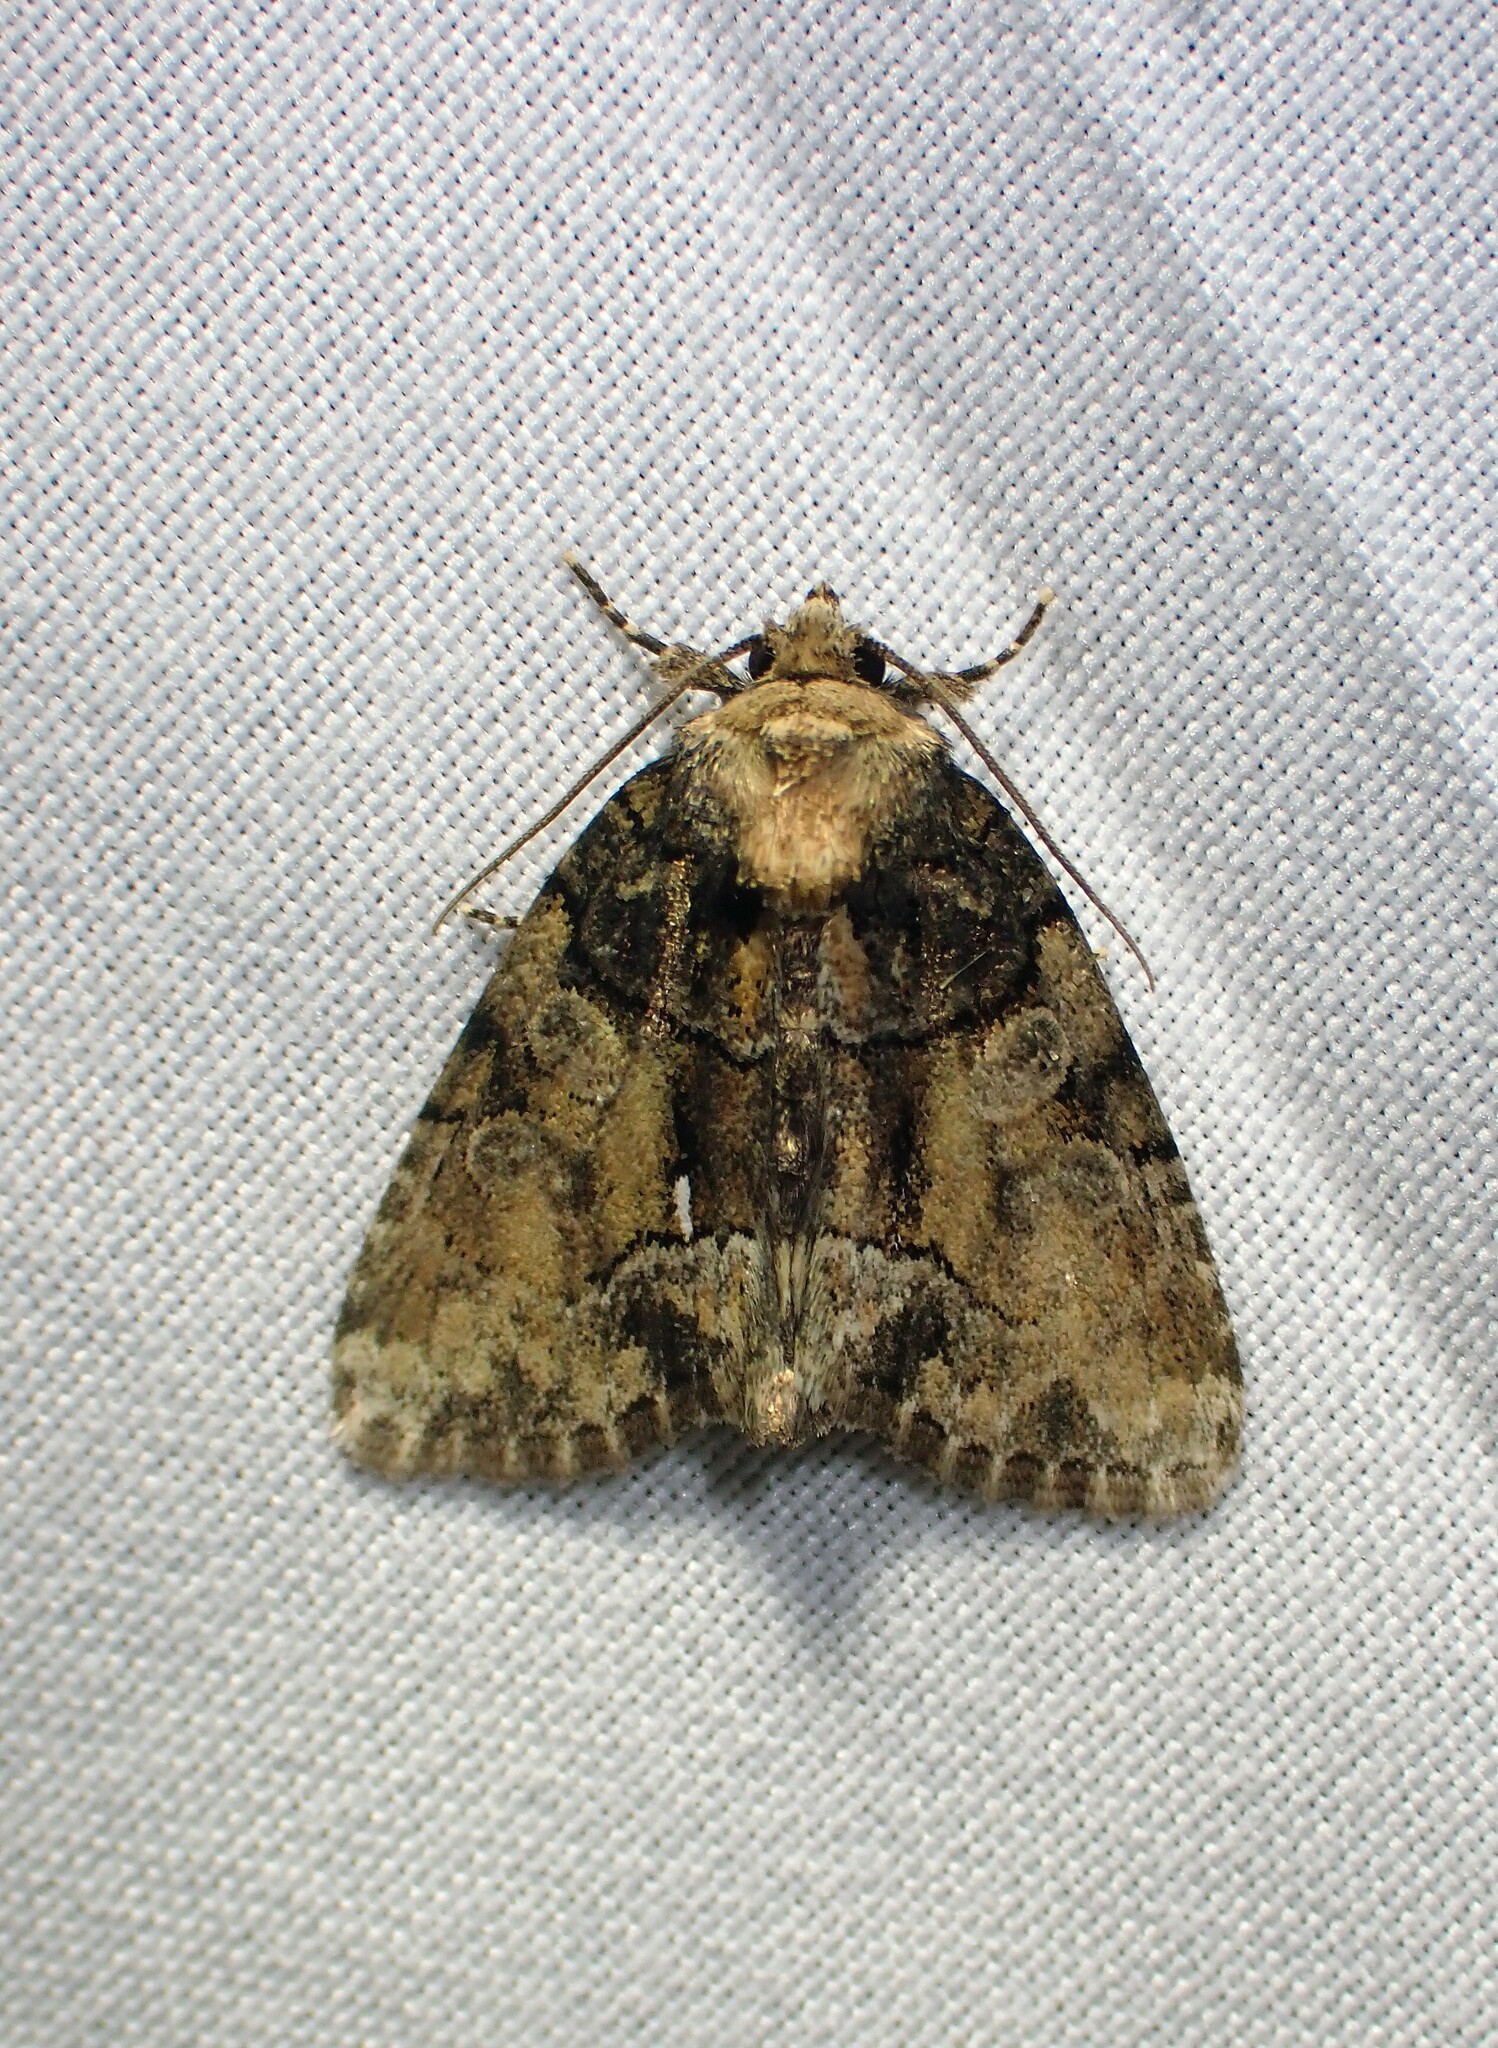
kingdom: Animalia
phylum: Arthropoda
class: Insecta
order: Lepidoptera
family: Noctuidae
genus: Chytonix
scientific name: Chytonix palliatricula
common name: Cloaked marvel
